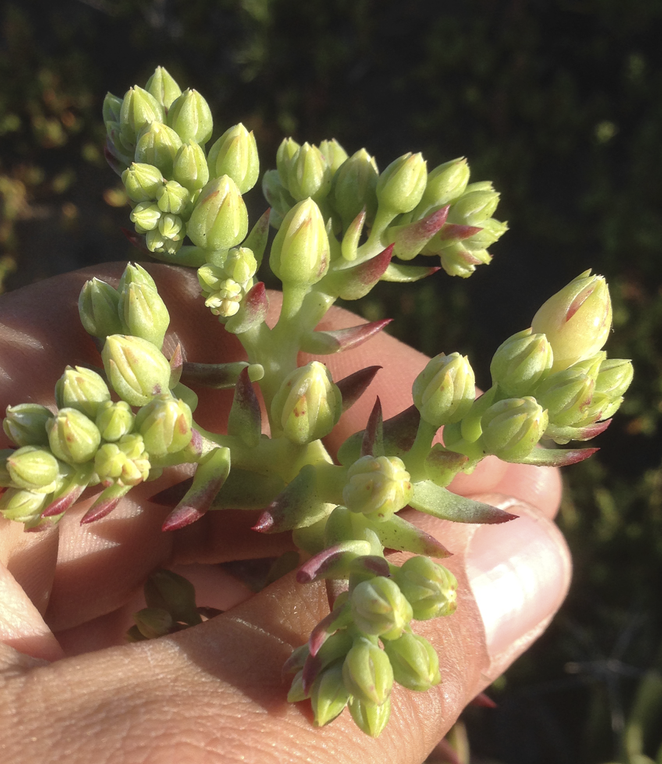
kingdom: Plantae
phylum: Tracheophyta
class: Magnoliopsida
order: Saxifragales
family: Crassulaceae
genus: Dudleya
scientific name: Dudleya ingens
